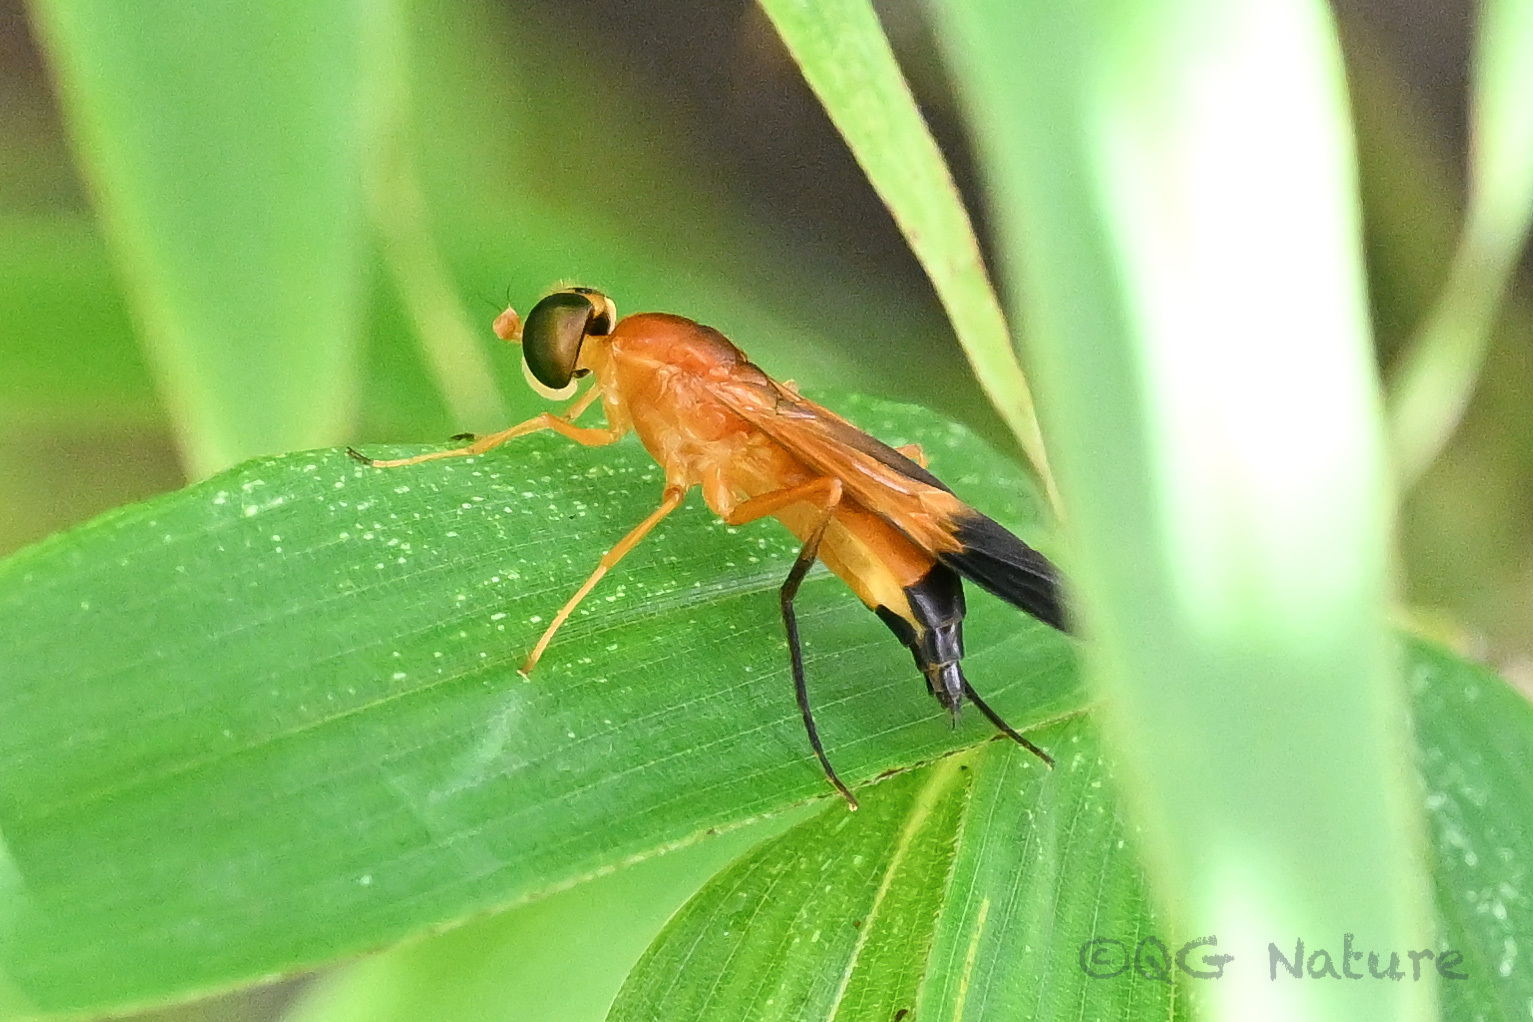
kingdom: Animalia
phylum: Arthropoda
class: Insecta
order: Diptera
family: Stratiomyidae
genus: Ptecticus
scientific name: Ptecticus aurifer
